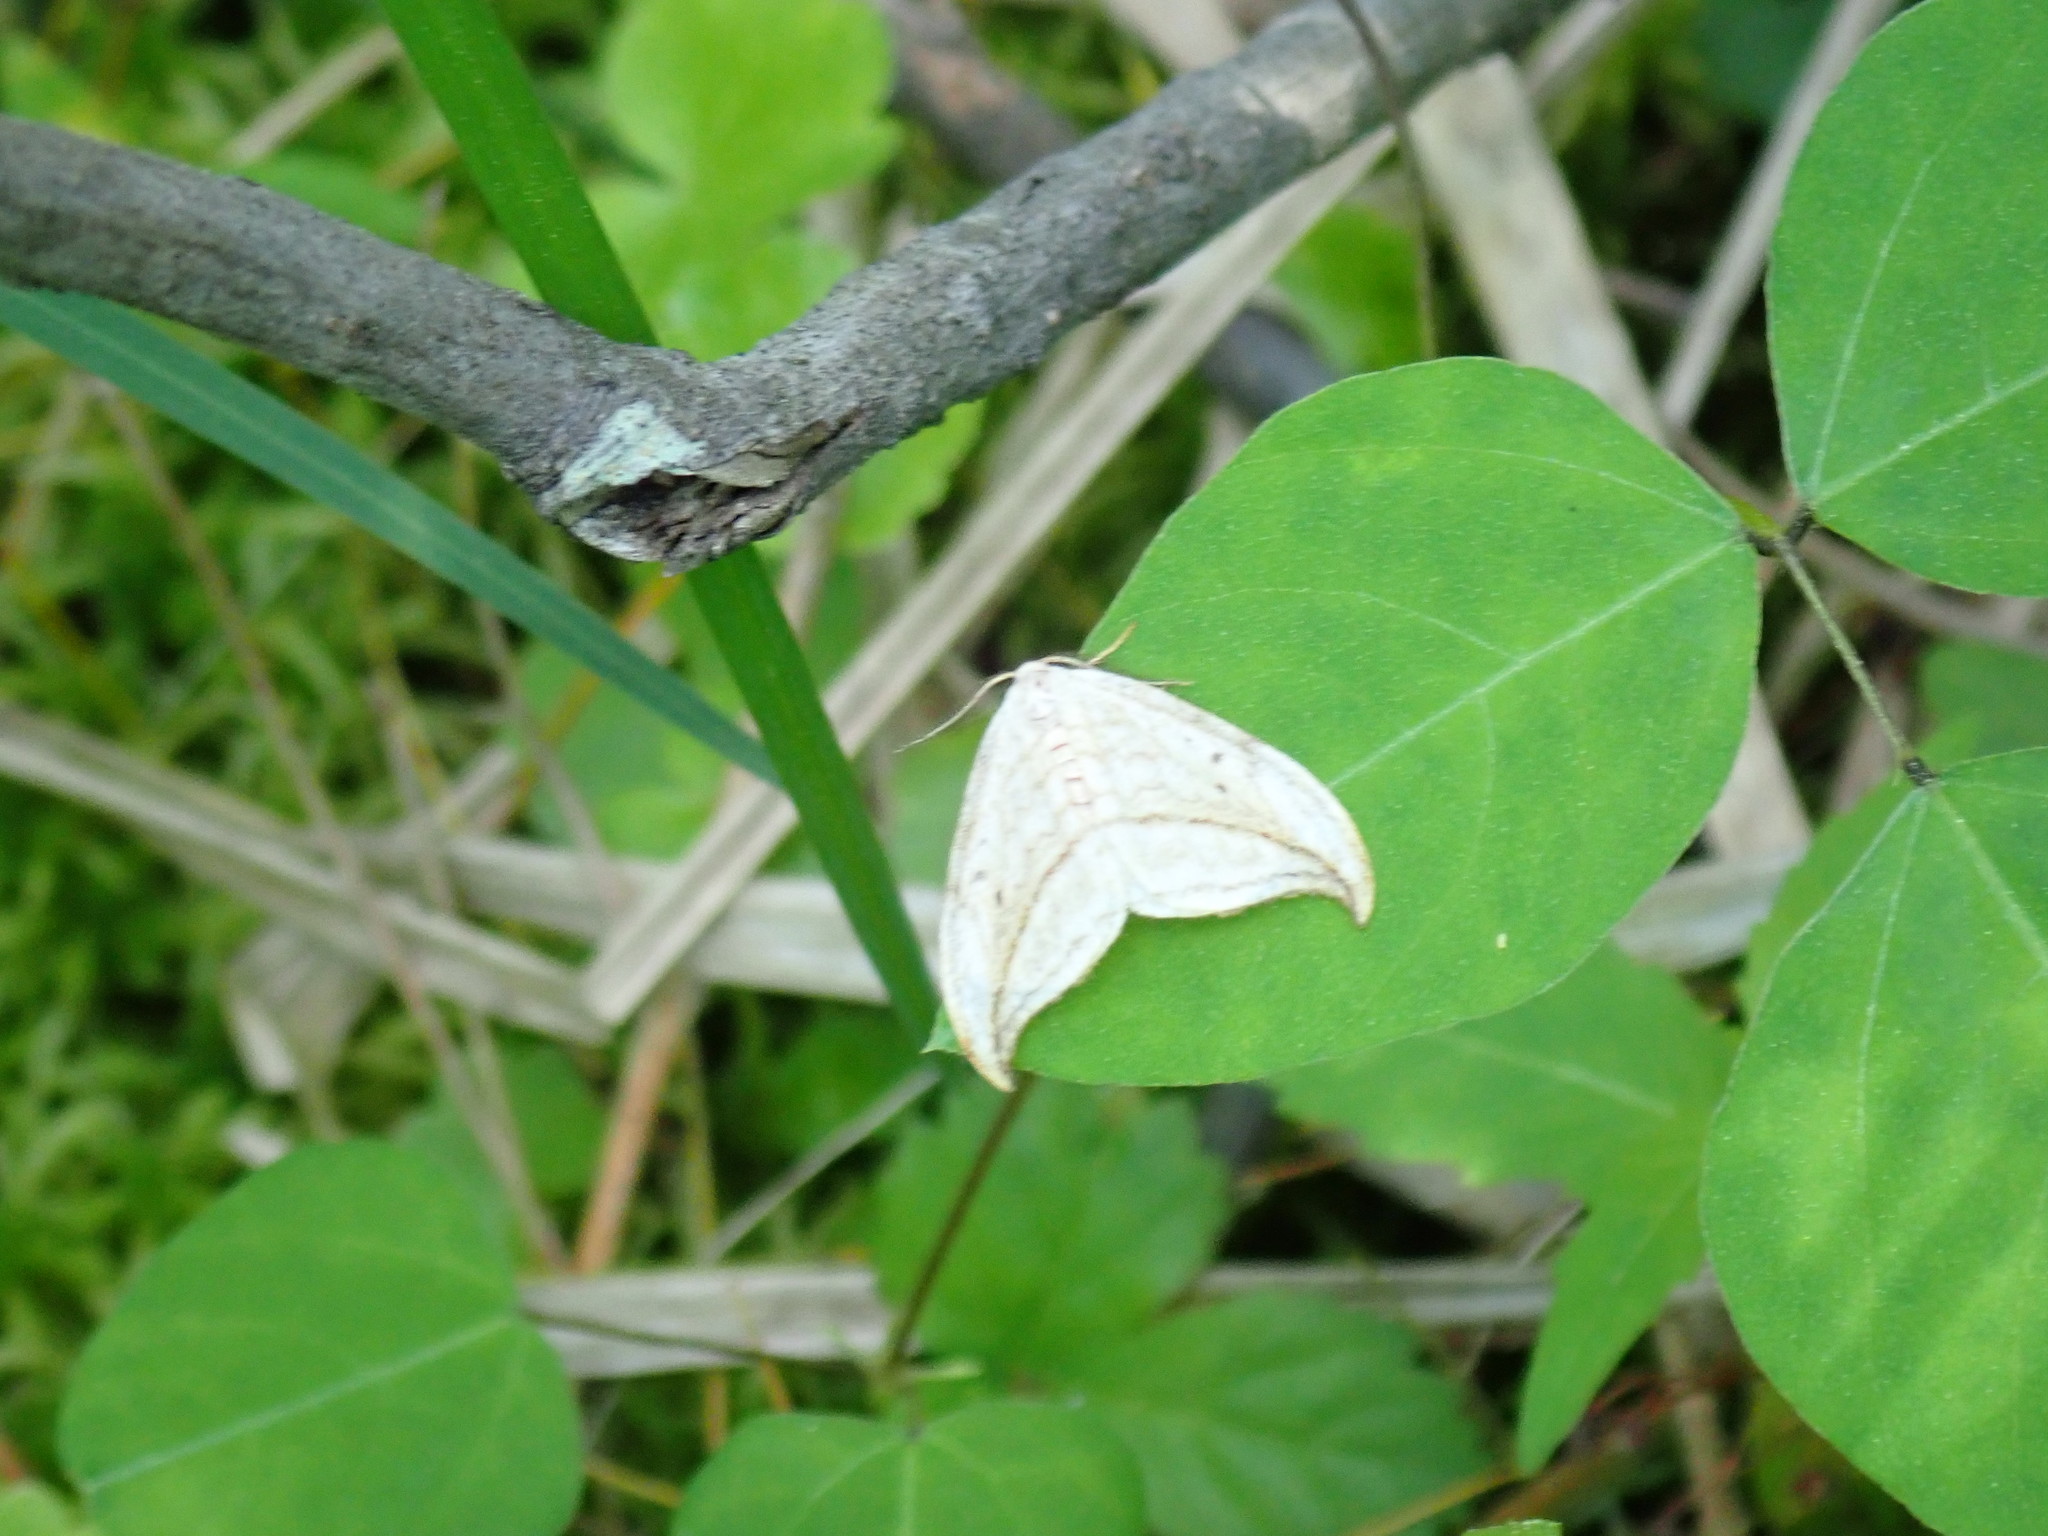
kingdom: Animalia
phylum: Arthropoda
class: Insecta
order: Lepidoptera
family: Drepanidae
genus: Drepana
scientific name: Drepana arcuata
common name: Arched hooktip moth
